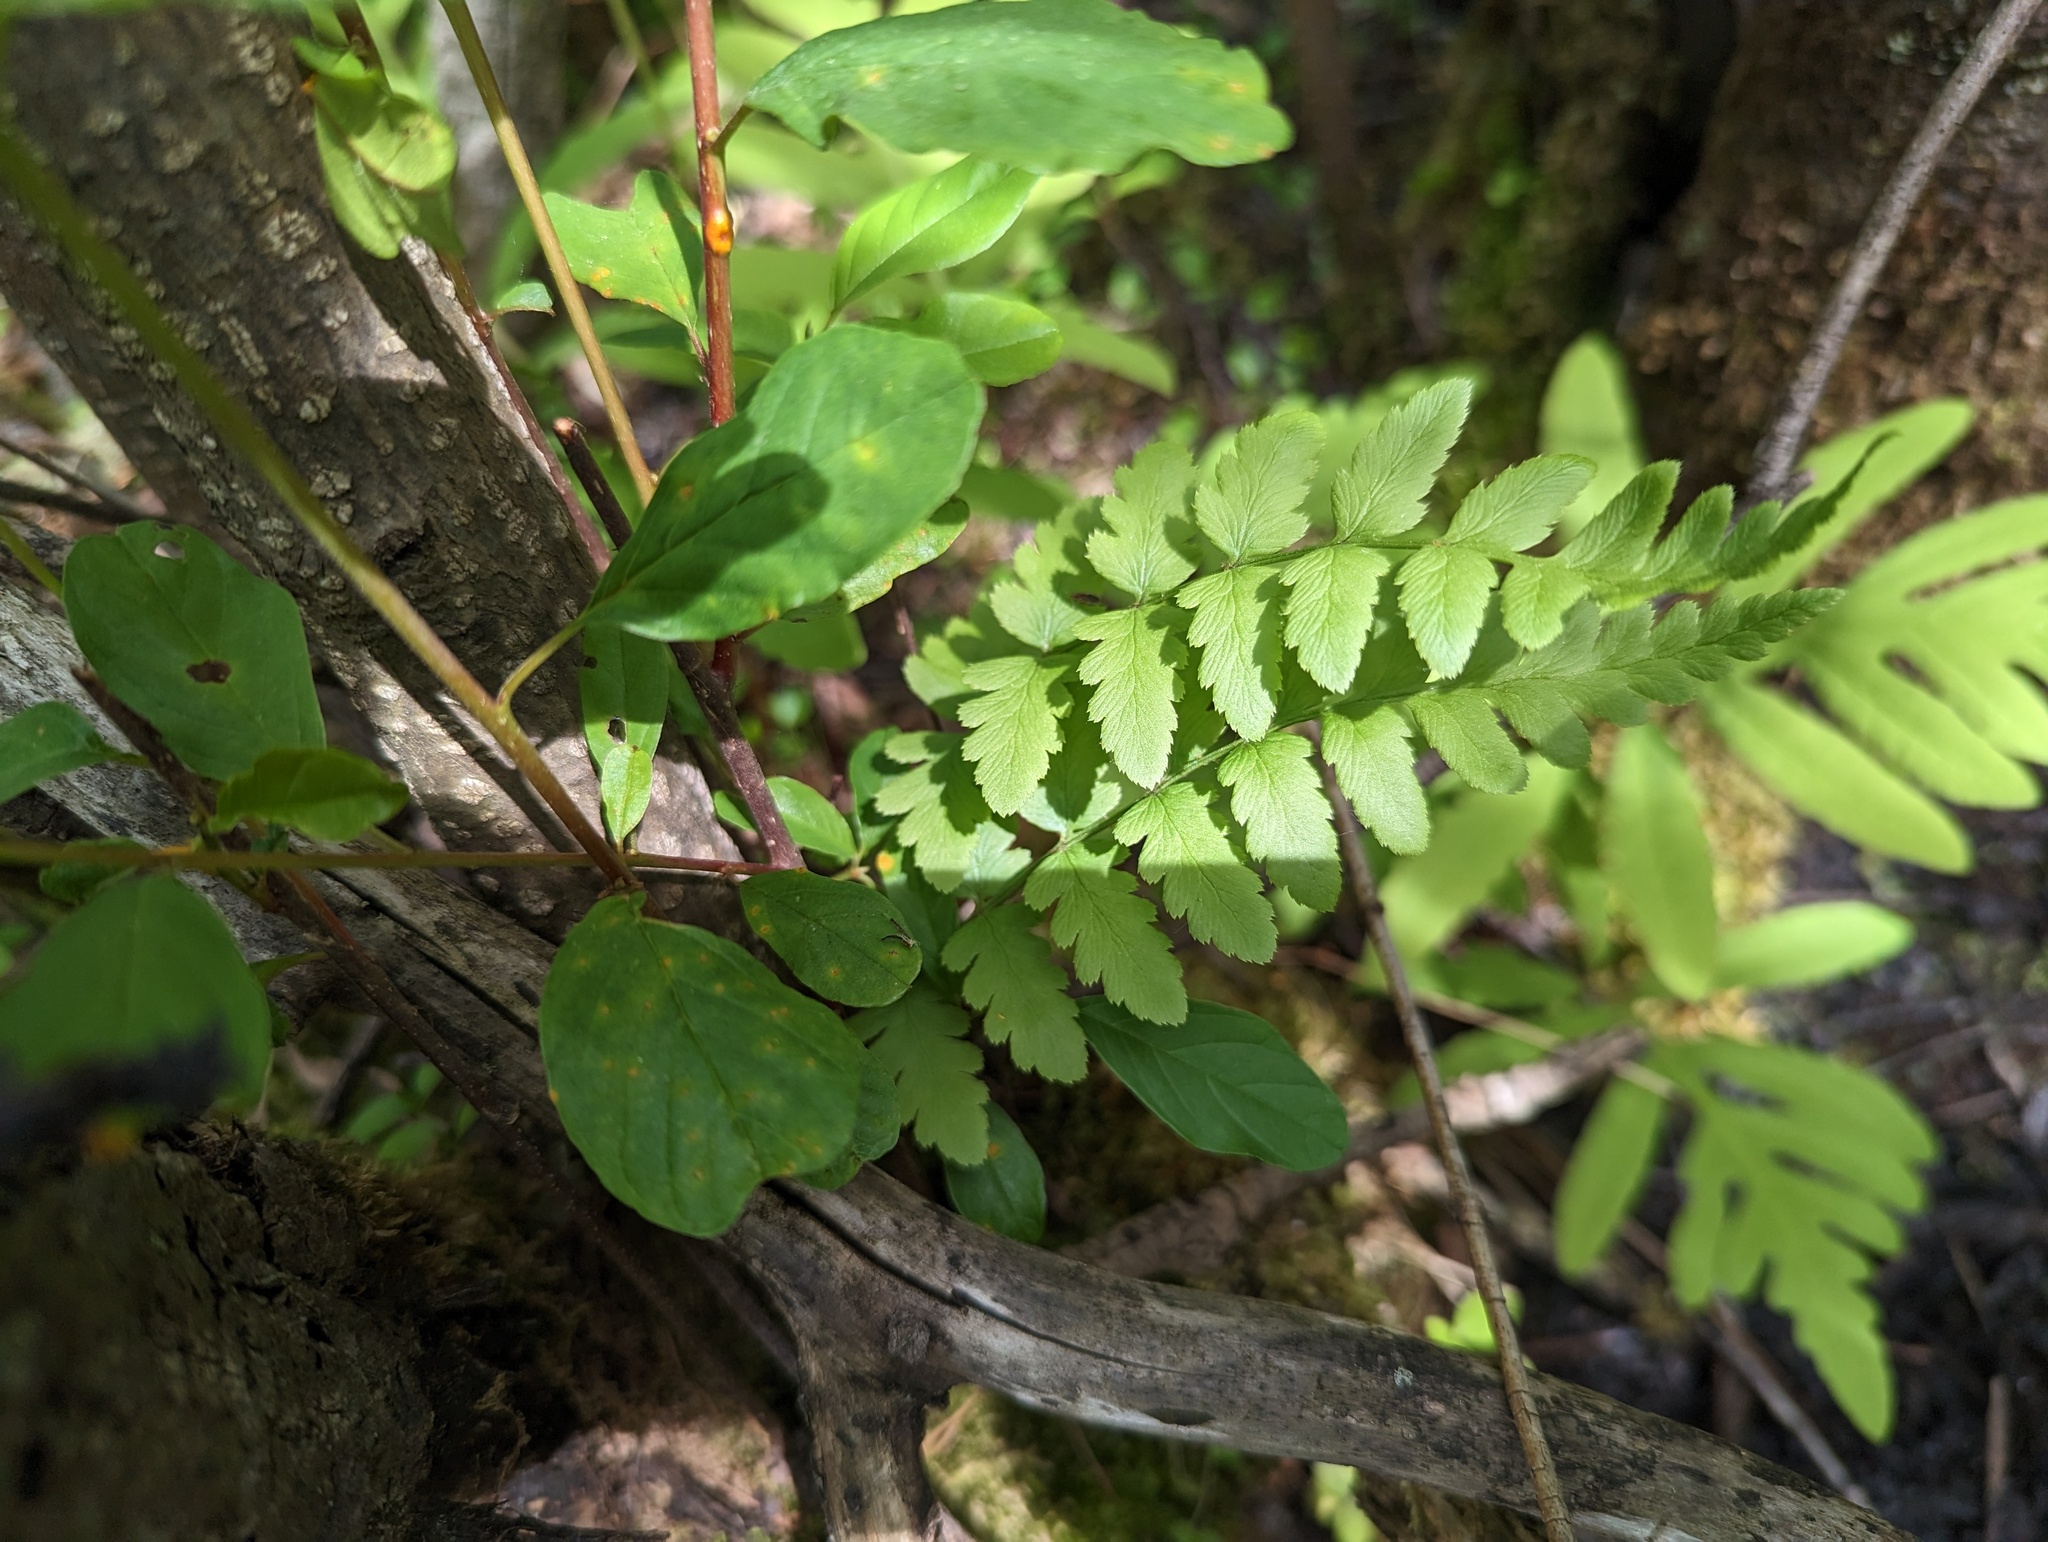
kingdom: Plantae
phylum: Tracheophyta
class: Polypodiopsida
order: Polypodiales
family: Dryopteridaceae
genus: Dryopteris
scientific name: Dryopteris cristata
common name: Crested wood fern
